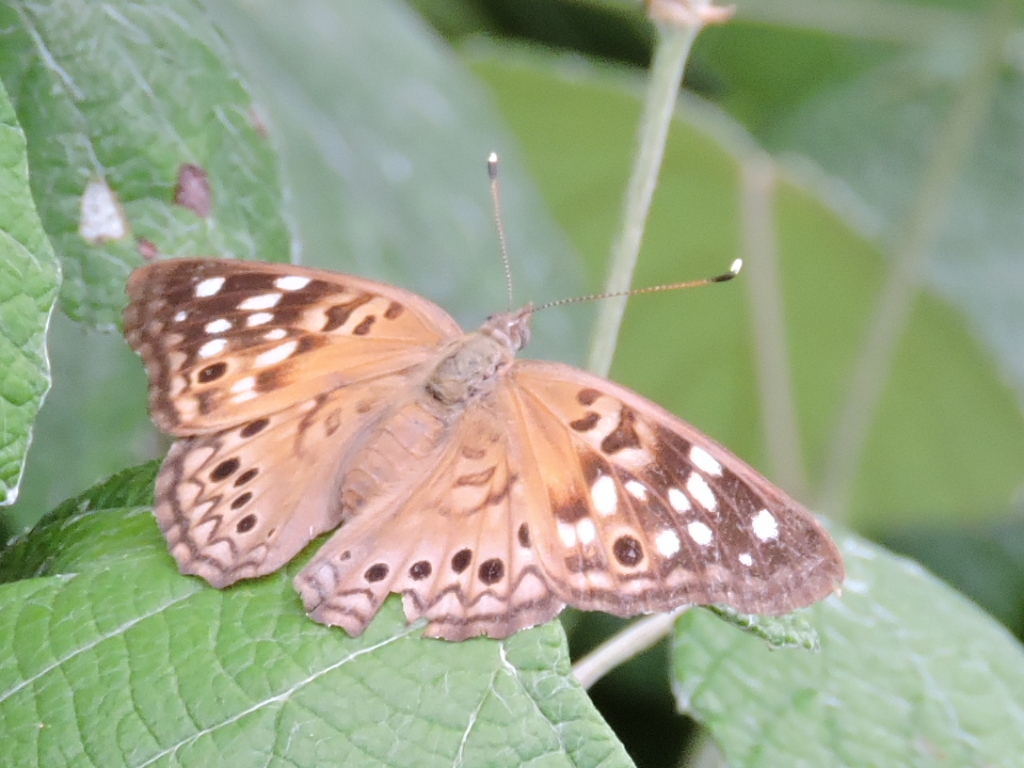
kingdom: Animalia
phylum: Arthropoda
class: Insecta
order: Lepidoptera
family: Nymphalidae
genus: Asterocampa
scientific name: Asterocampa celtis
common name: Hackberry emperor
